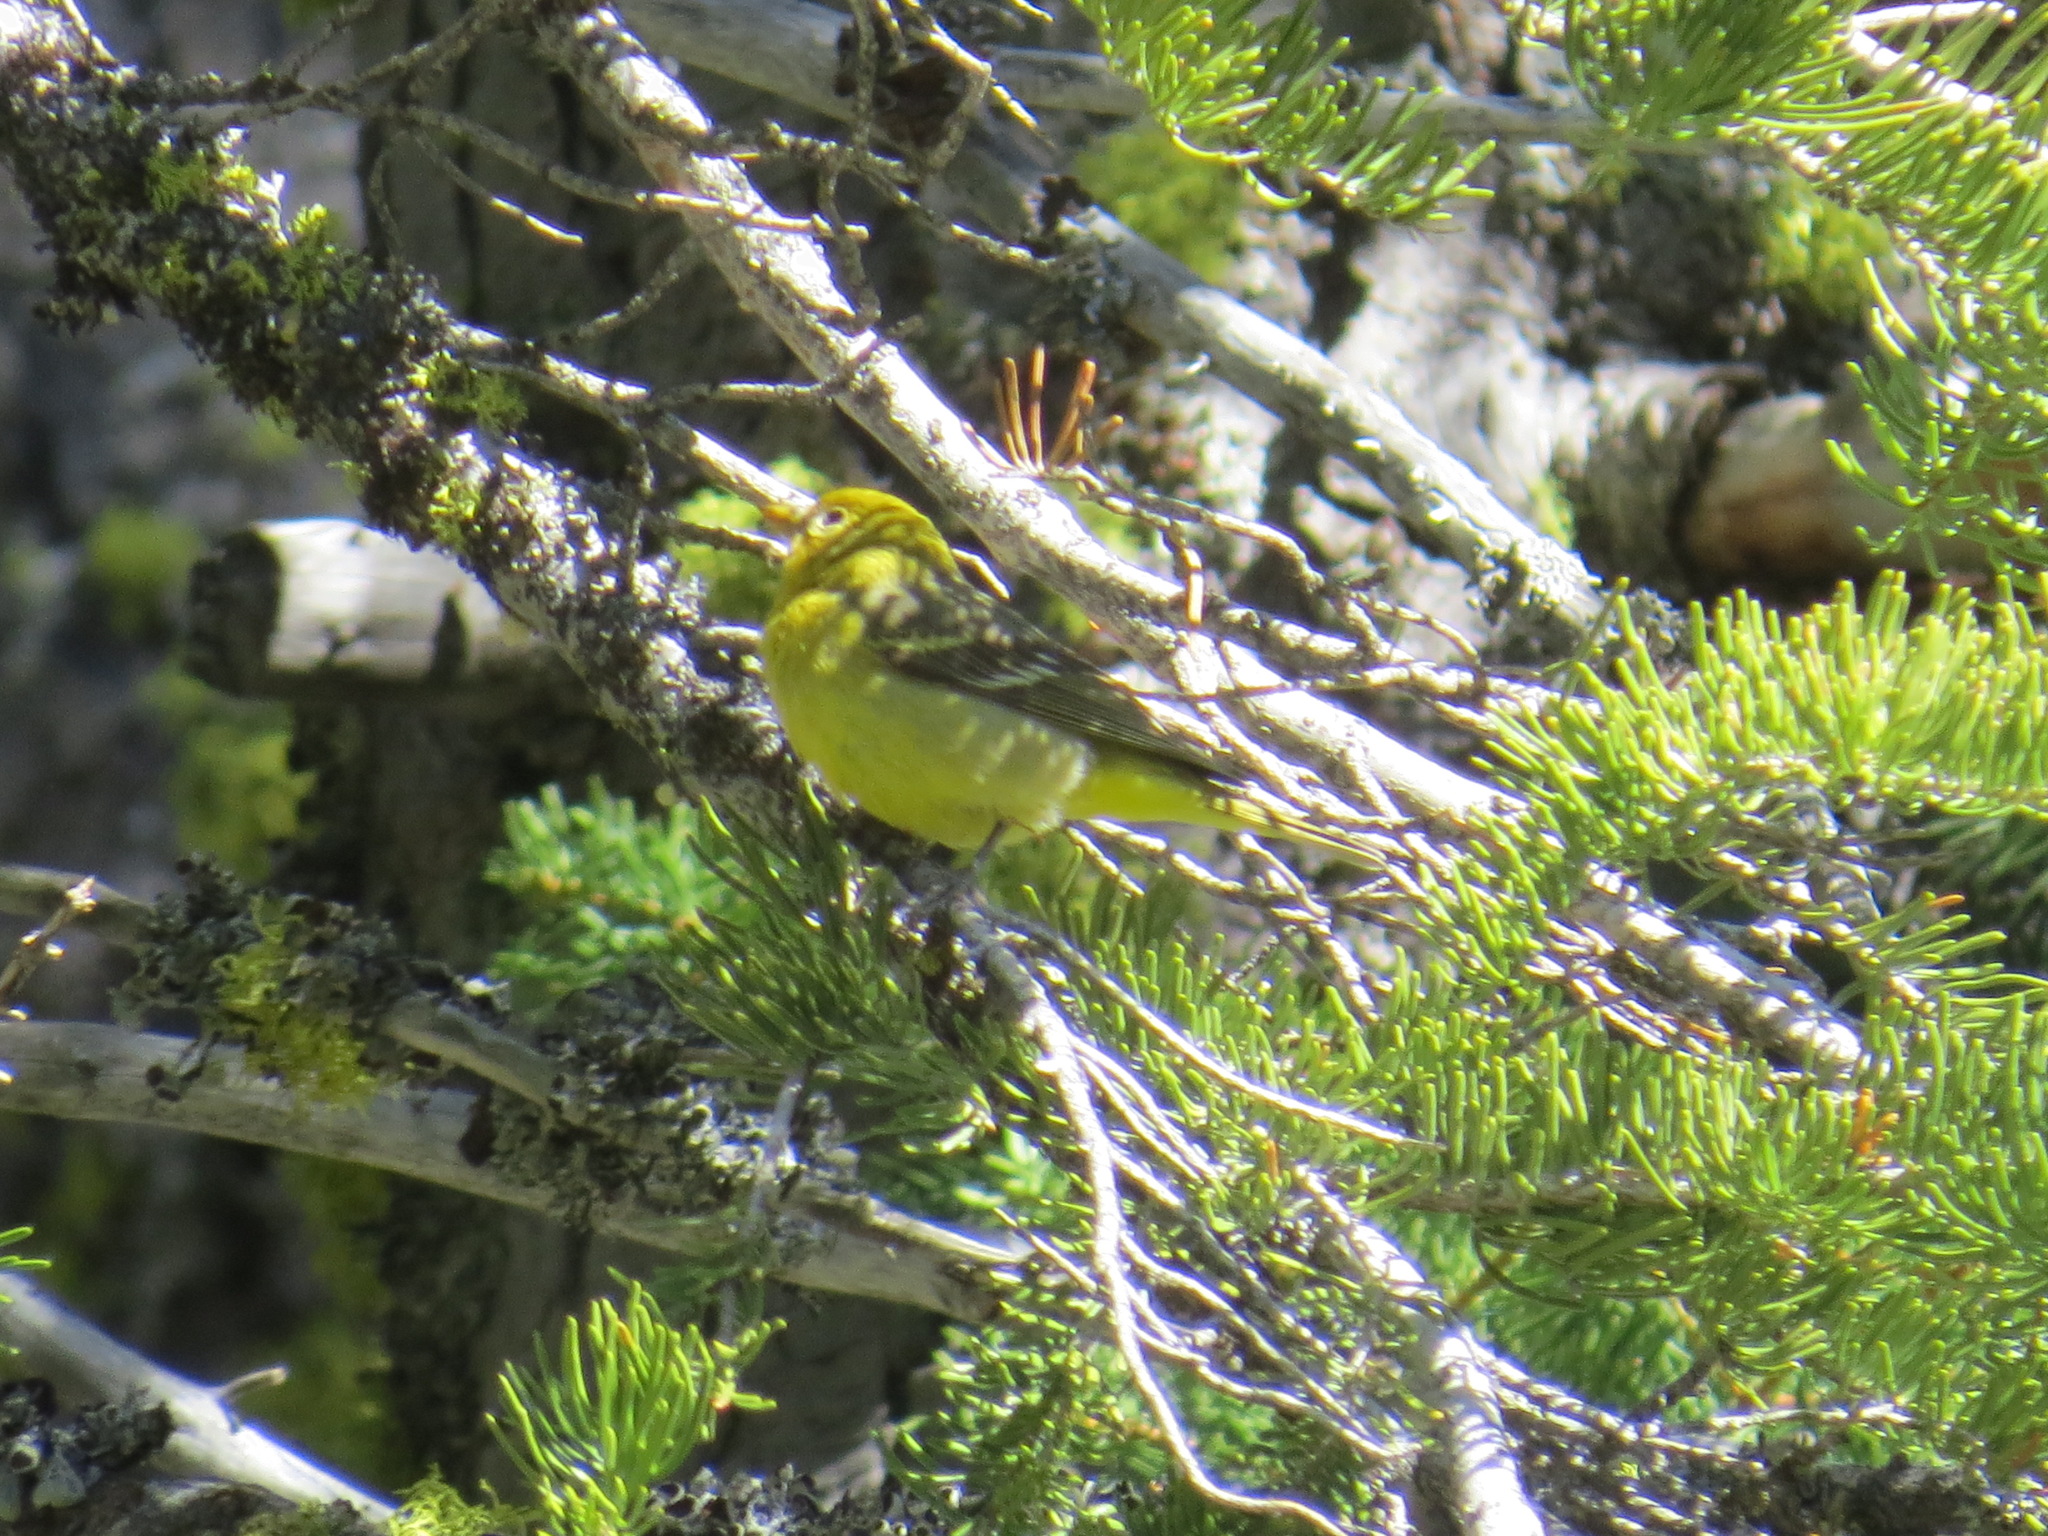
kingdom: Animalia
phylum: Chordata
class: Aves
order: Passeriformes
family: Cardinalidae
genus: Piranga
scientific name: Piranga ludoviciana
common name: Western tanager
